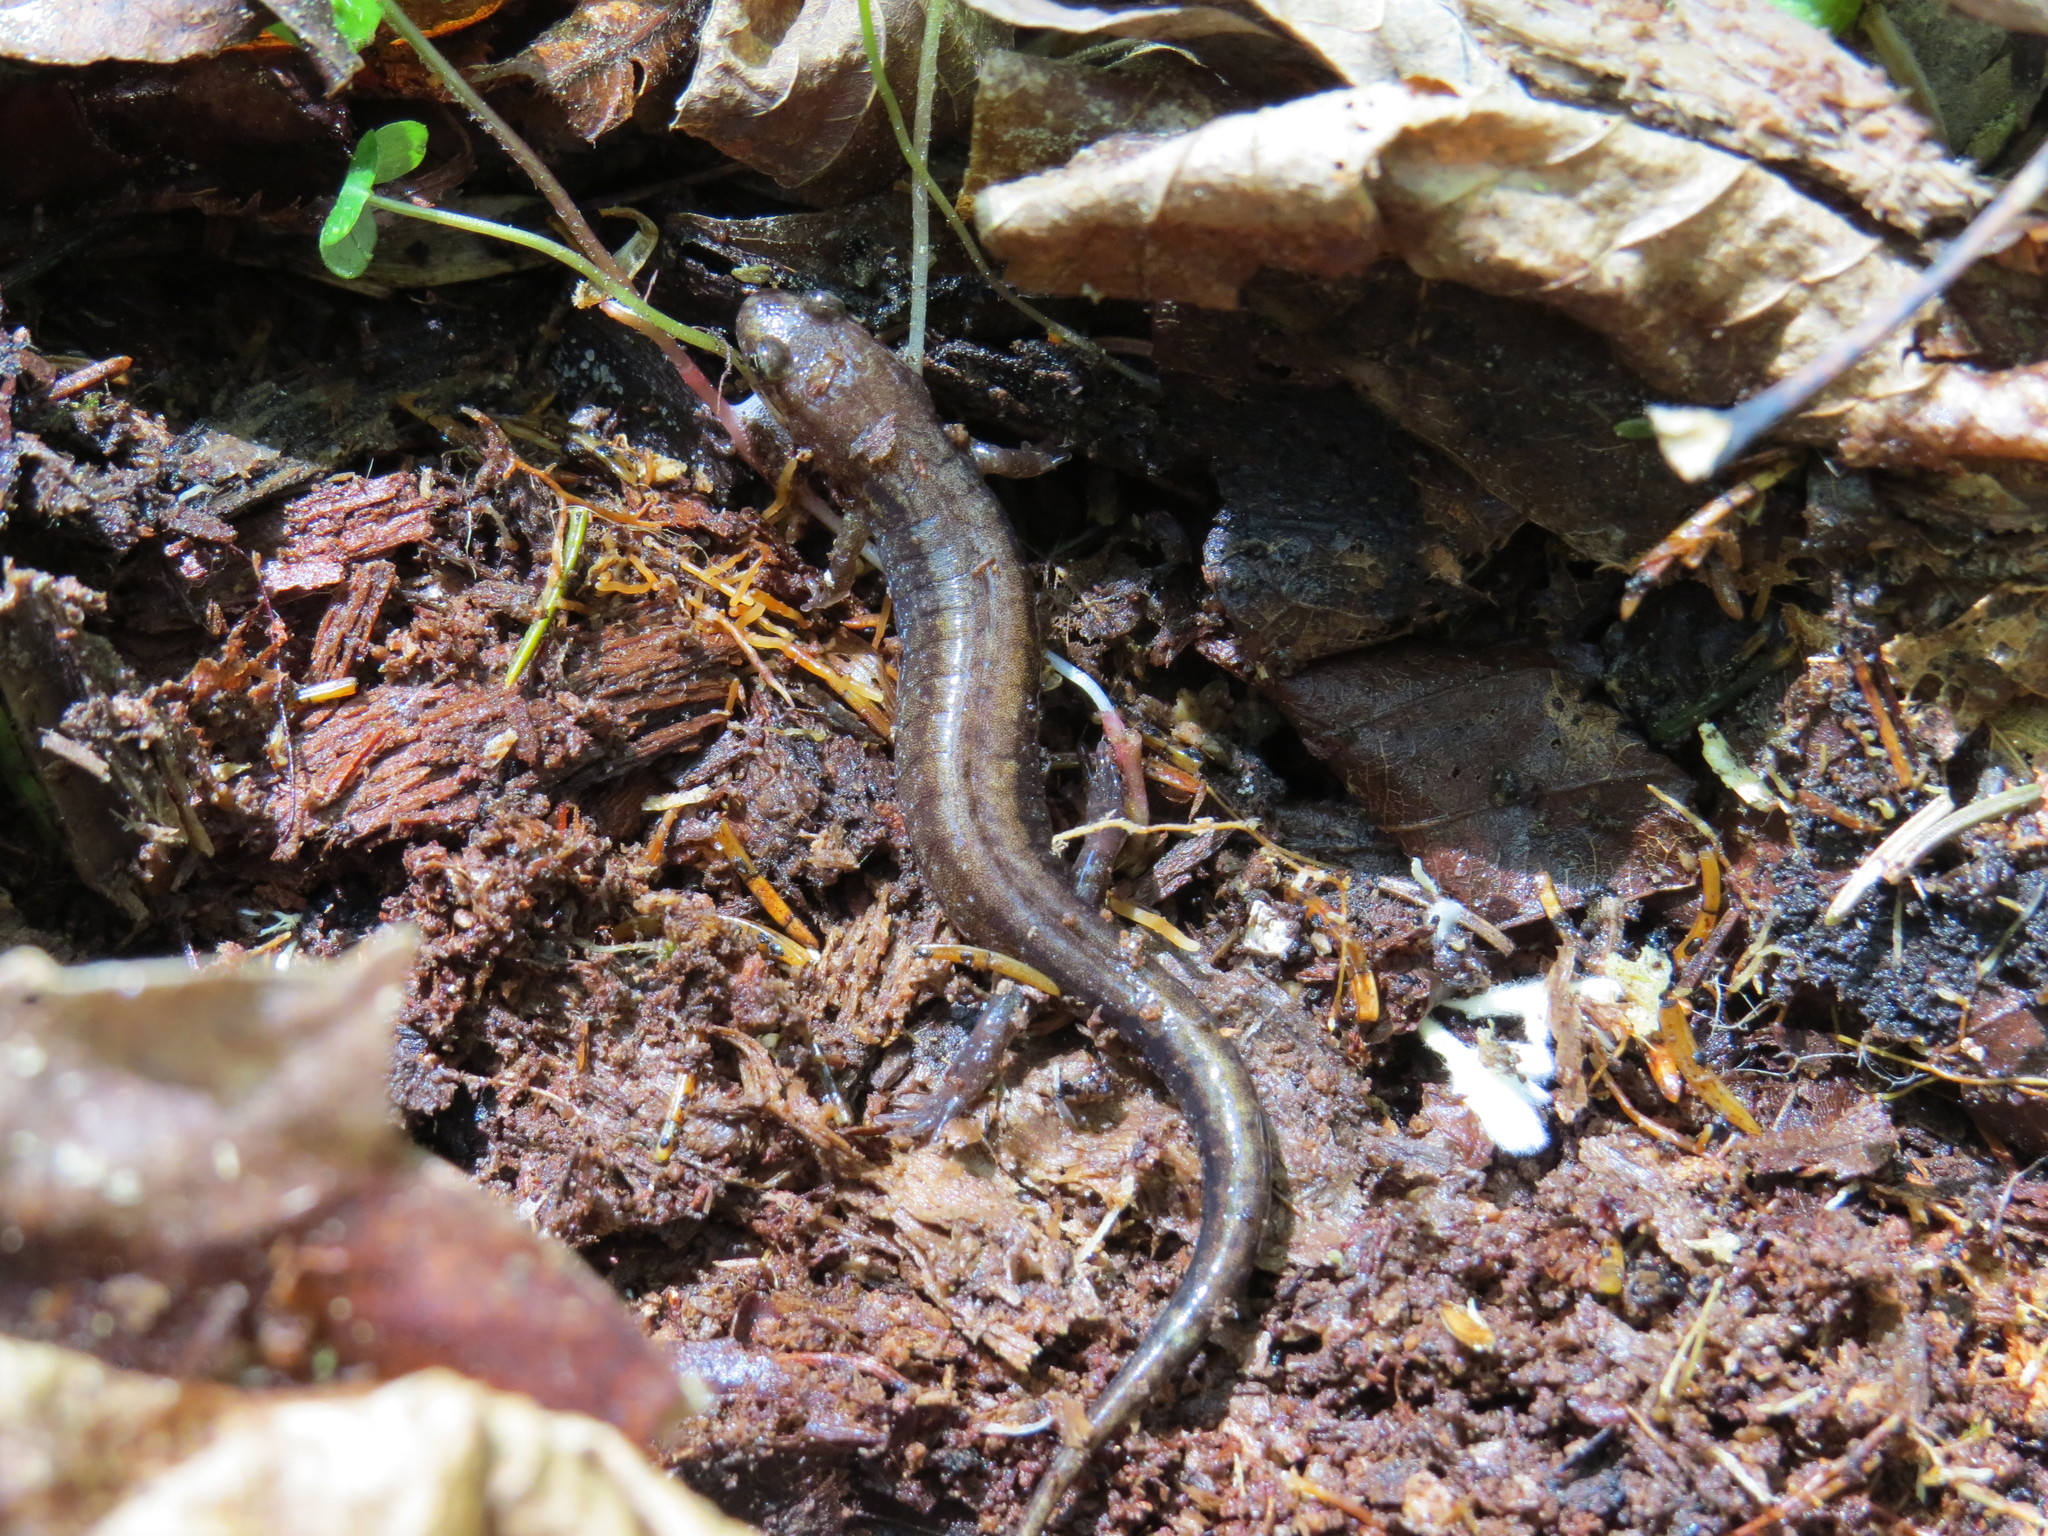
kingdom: Animalia
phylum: Chordata
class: Amphibia
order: Caudata
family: Plethodontidae
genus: Desmognathus
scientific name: Desmognathus ochrophaeus
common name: Allegheny mountain dusky salamander
